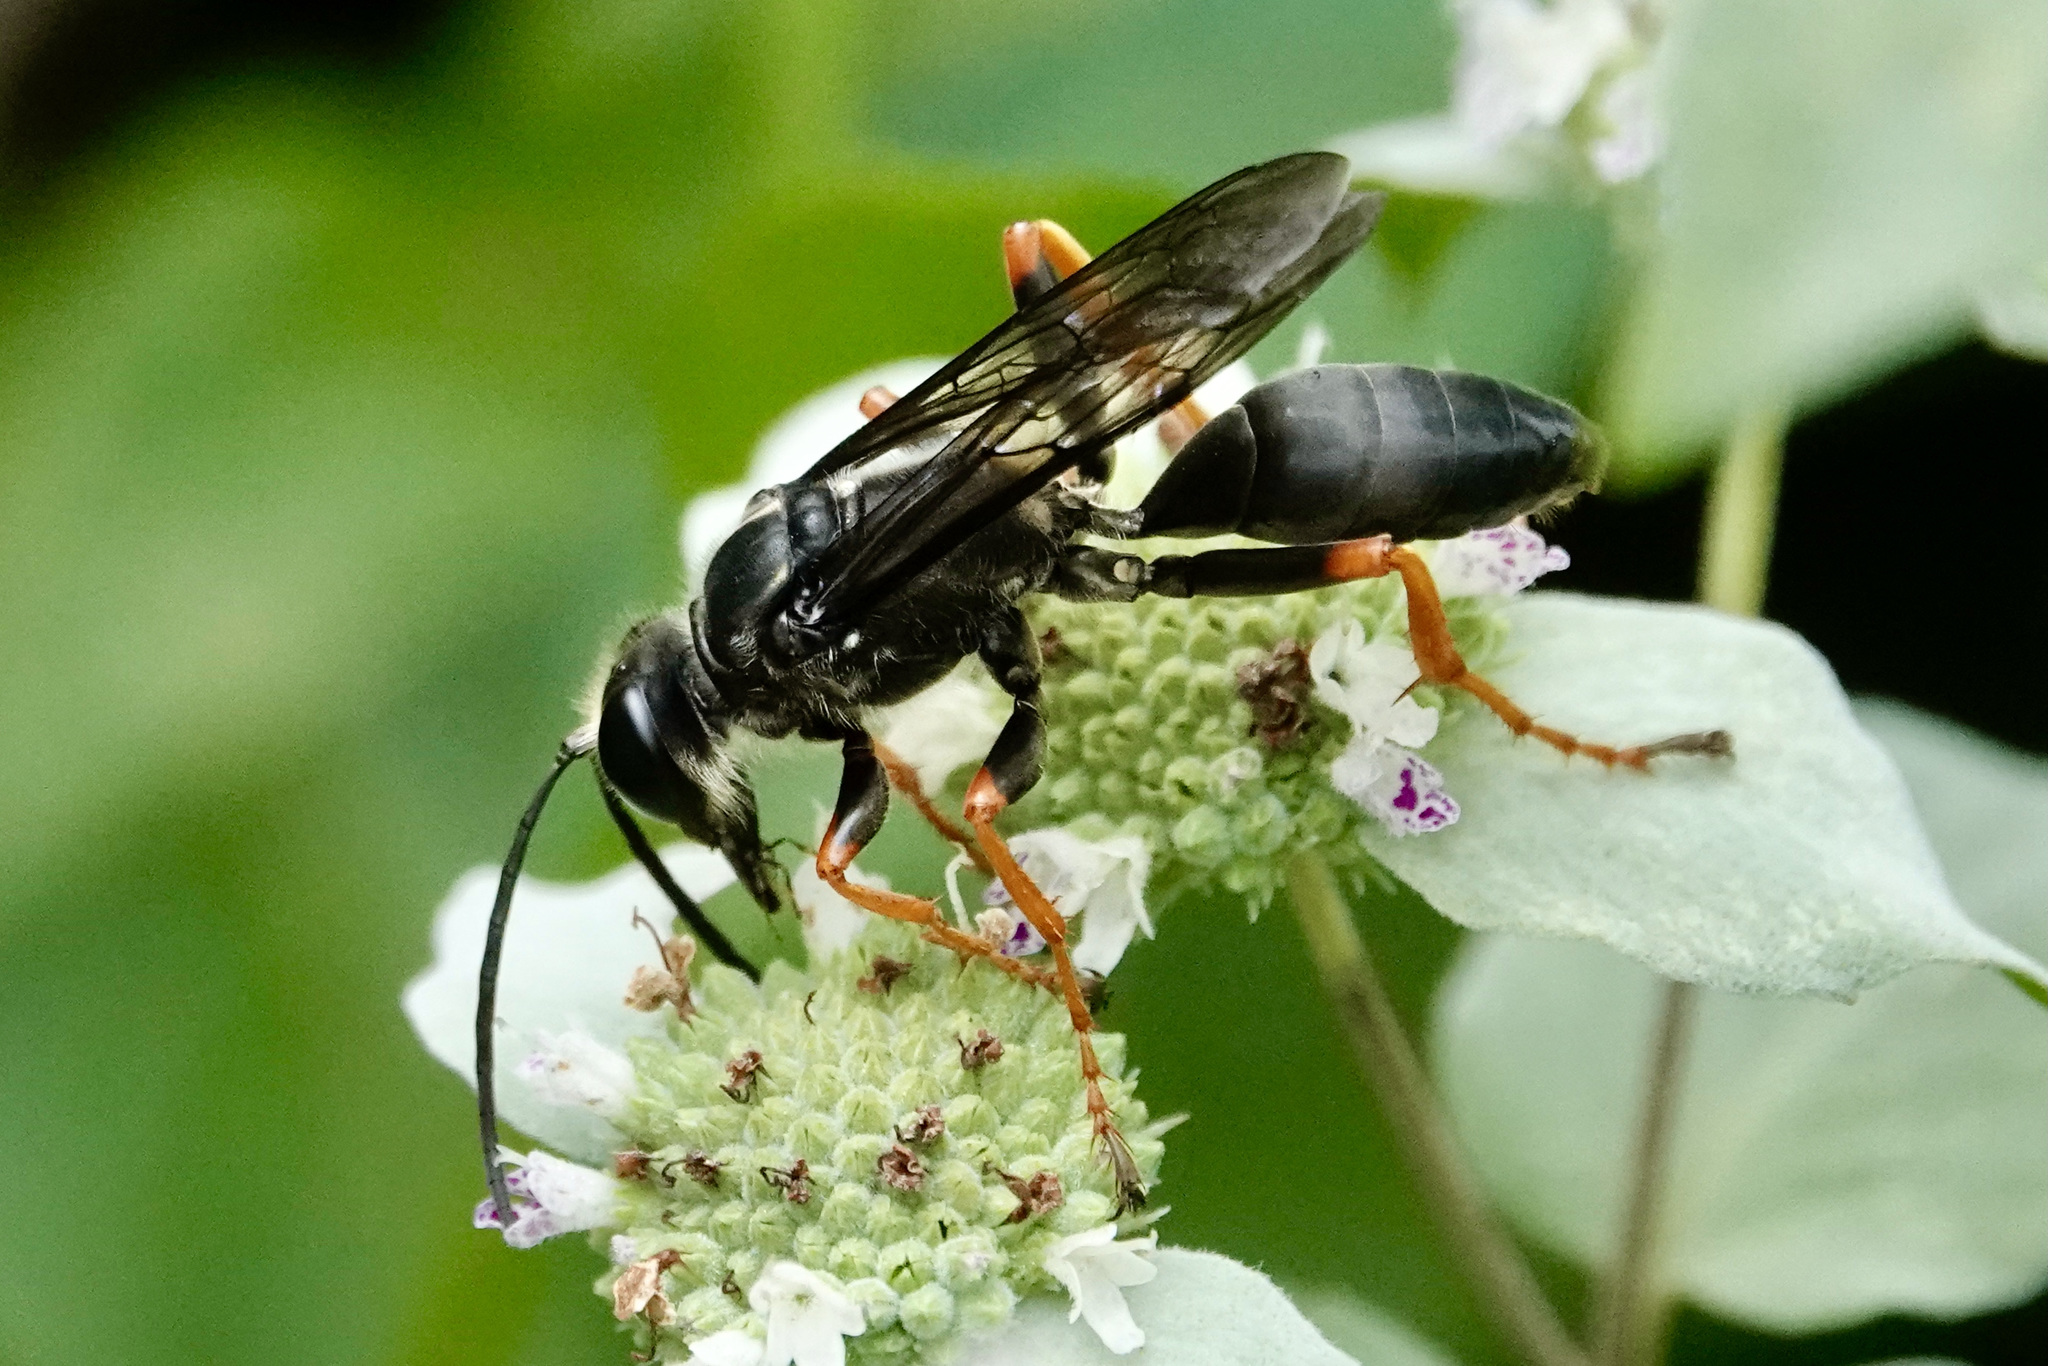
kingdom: Animalia
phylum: Arthropoda
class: Insecta
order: Hymenoptera
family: Sphecidae
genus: Sphex
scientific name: Sphex nudus
